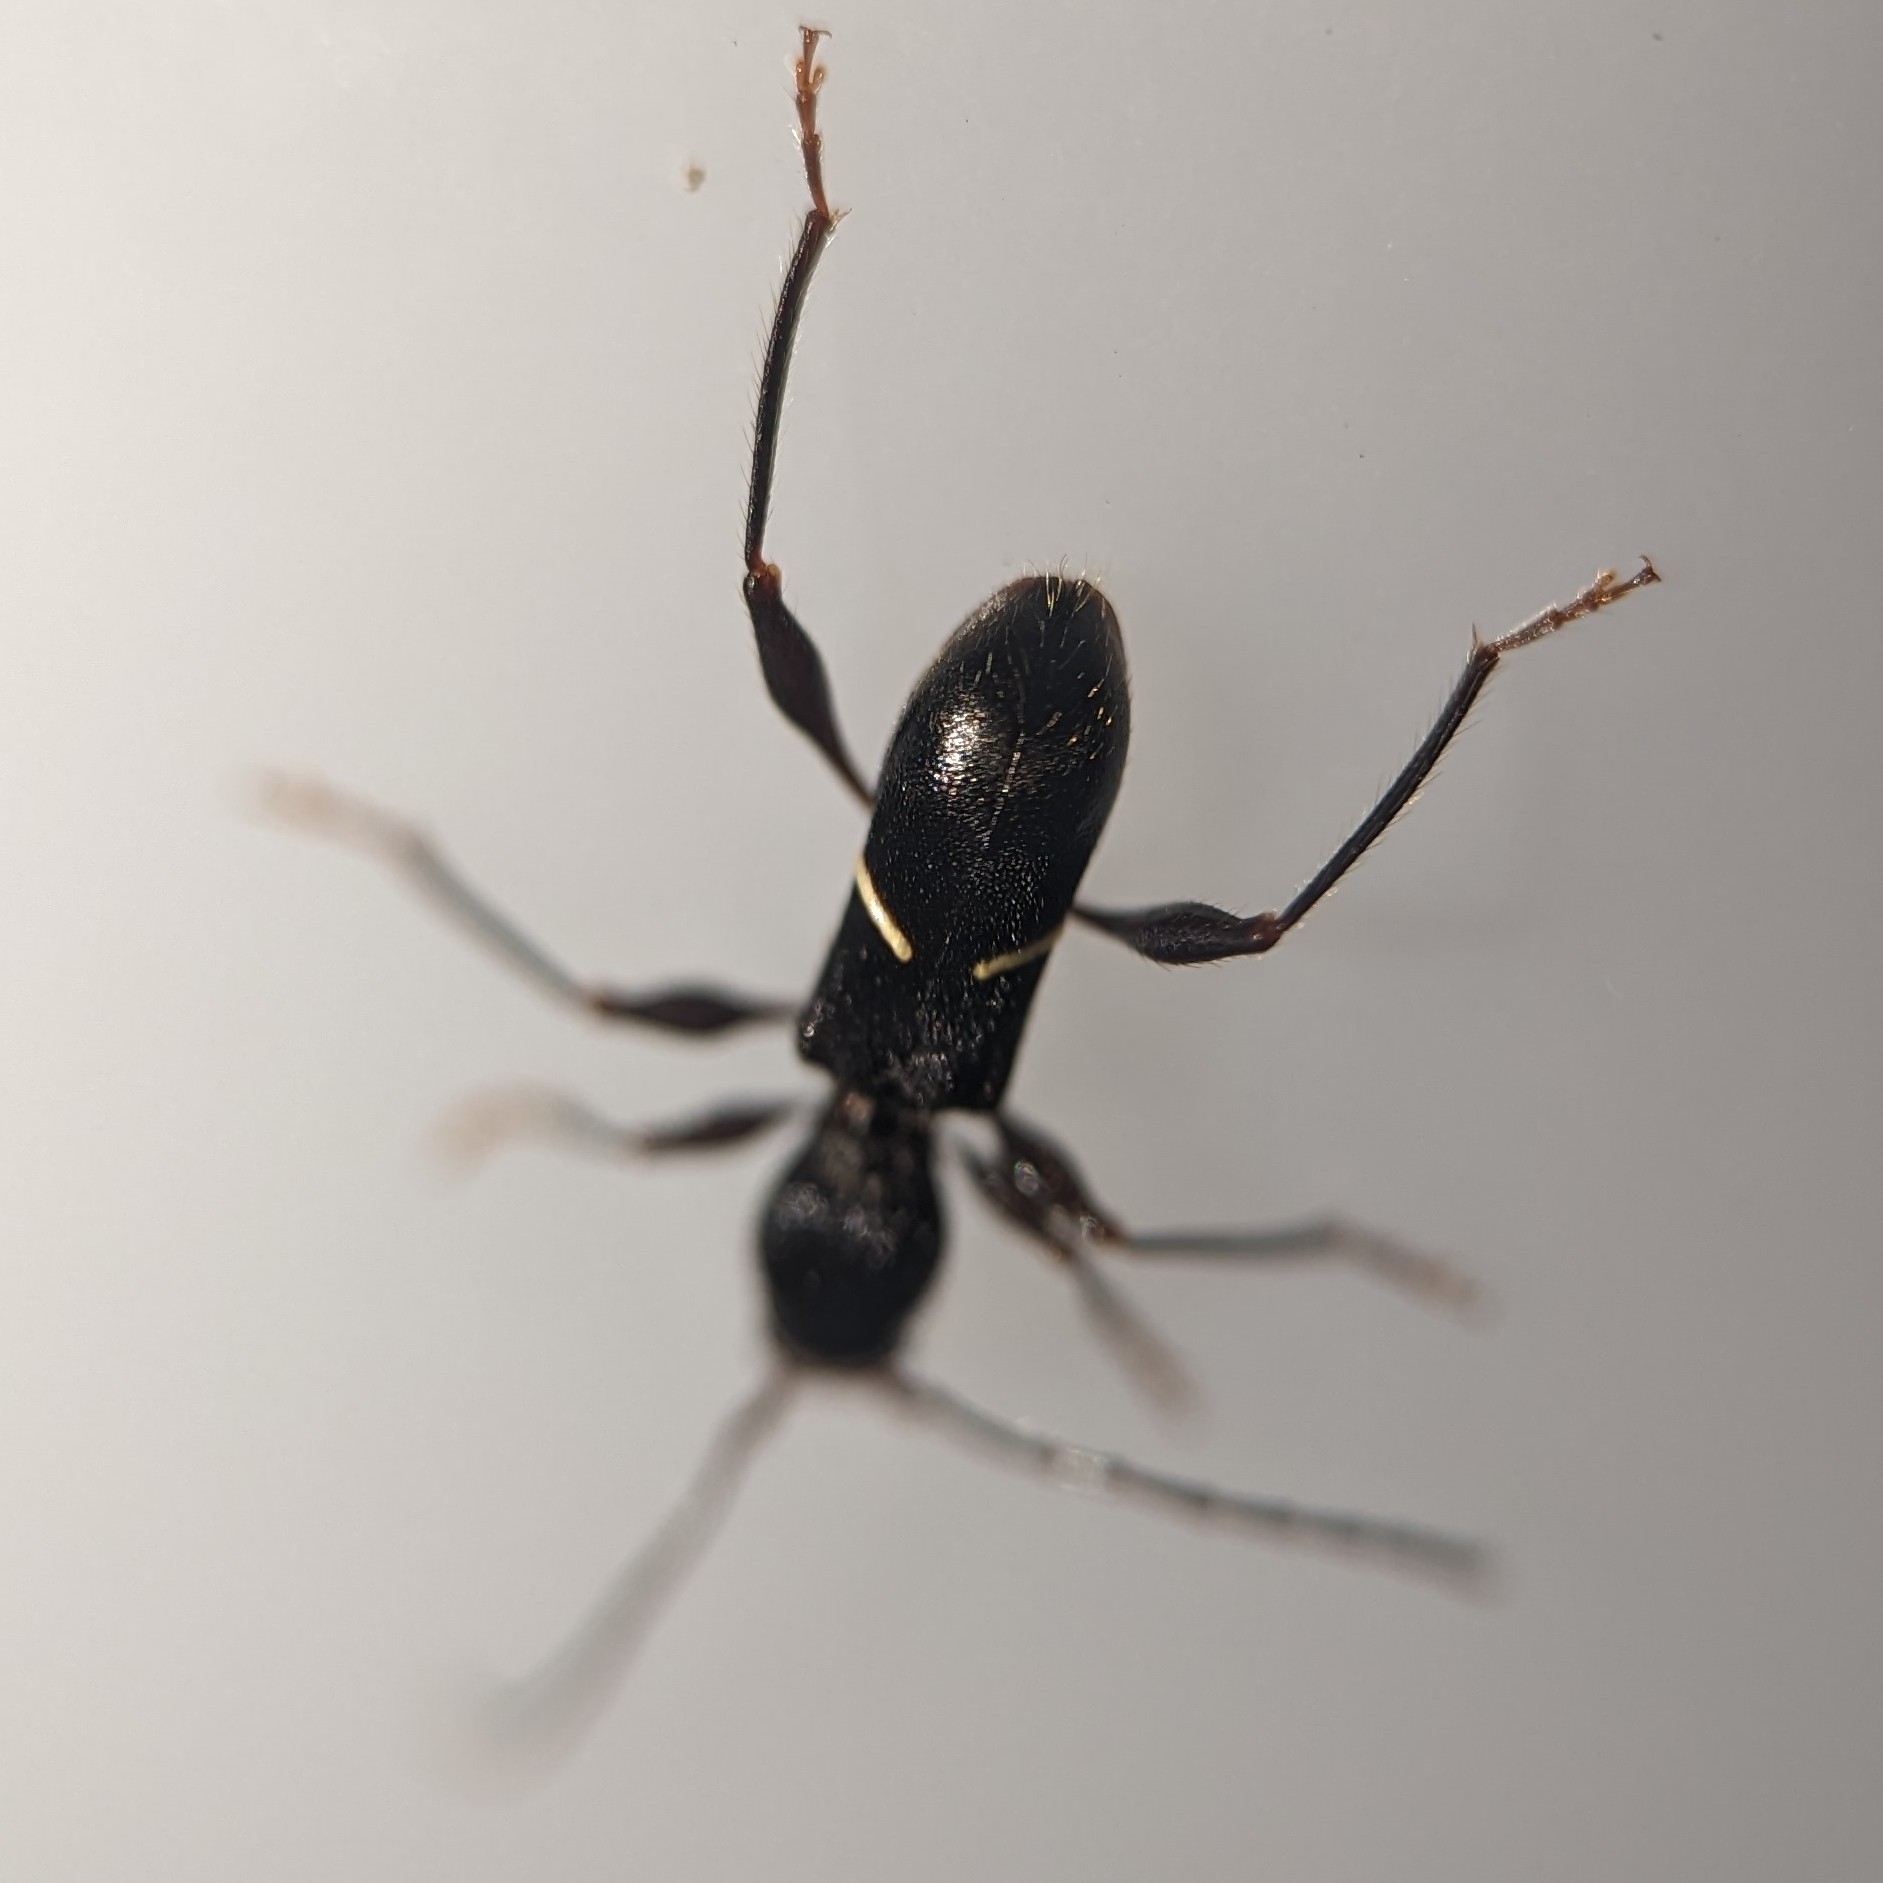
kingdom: Animalia
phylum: Arthropoda
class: Insecta
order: Coleoptera
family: Cerambycidae
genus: Euderces
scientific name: Euderces picipes
